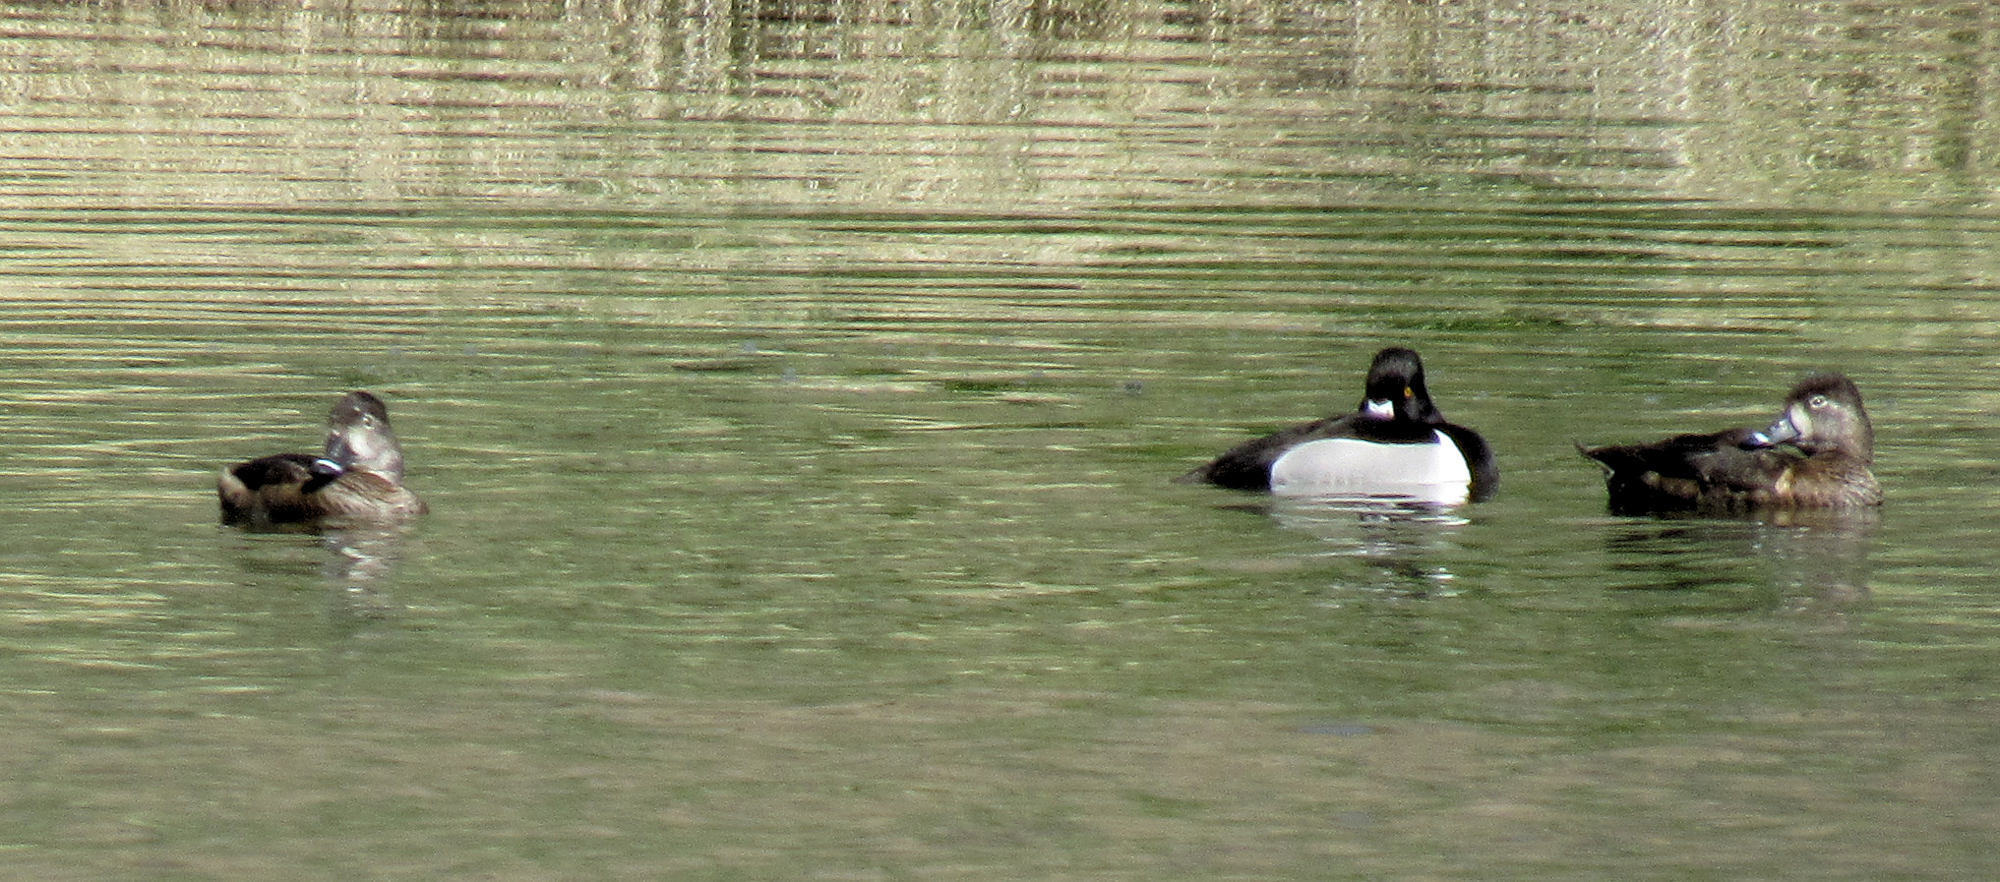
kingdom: Animalia
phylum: Chordata
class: Aves
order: Anseriformes
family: Anatidae
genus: Aythya
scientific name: Aythya collaris
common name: Ring-necked duck
